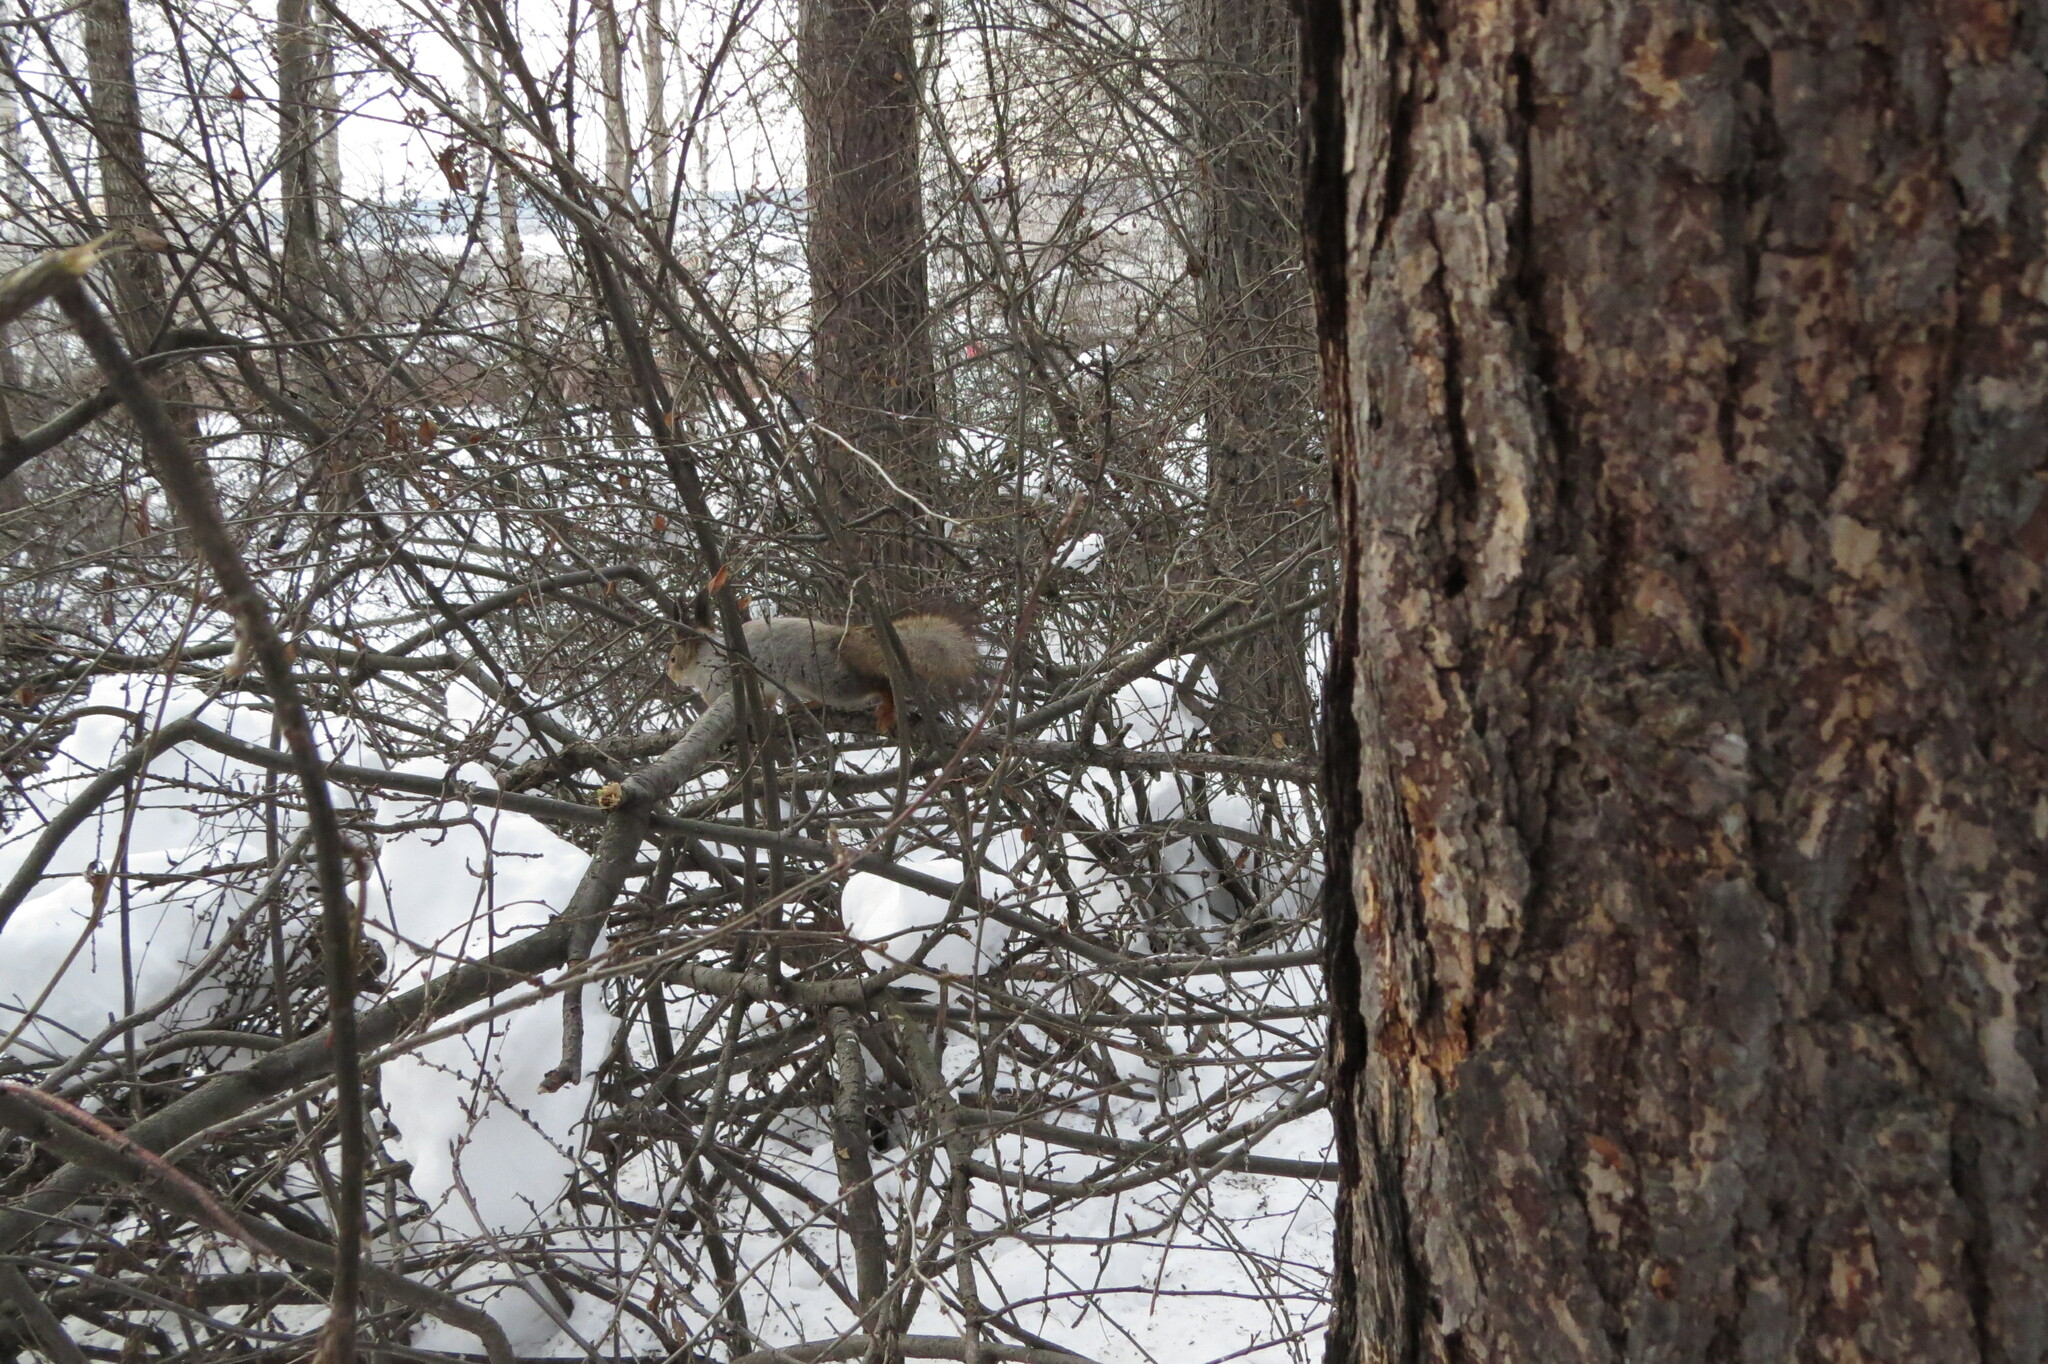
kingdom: Animalia
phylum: Chordata
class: Mammalia
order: Rodentia
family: Sciuridae
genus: Sciurus
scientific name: Sciurus vulgaris
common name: Eurasian red squirrel
